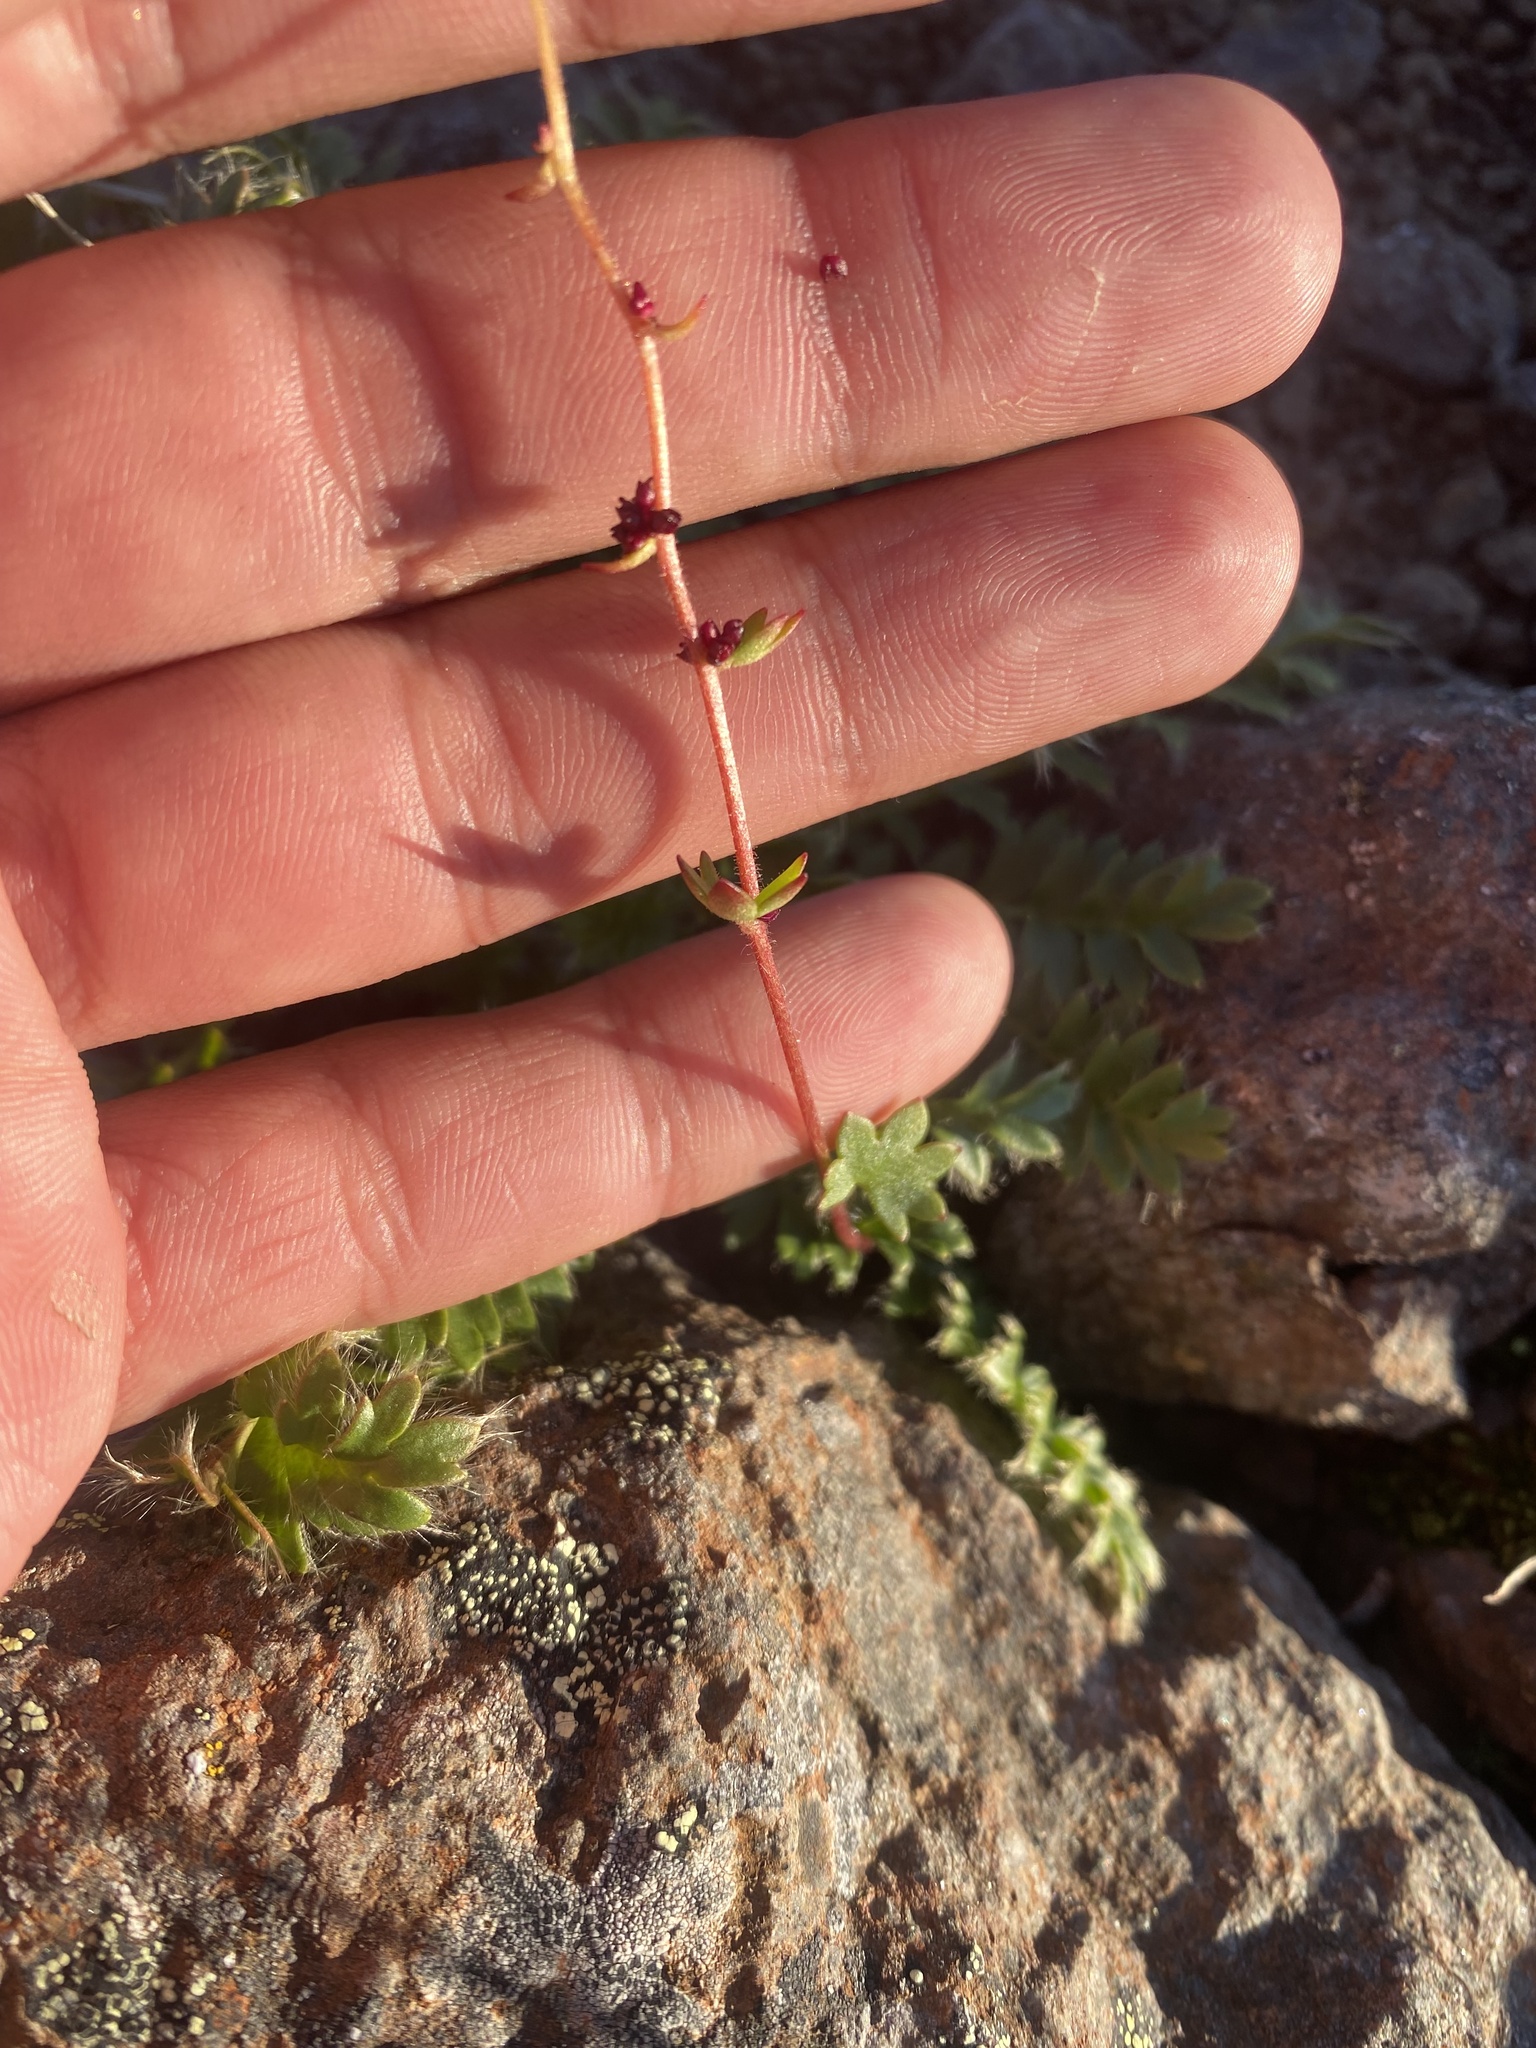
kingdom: Plantae
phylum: Tracheophyta
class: Magnoliopsida
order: Saxifragales
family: Saxifragaceae
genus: Saxifraga
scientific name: Saxifraga cernua
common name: Drooping saxifrage
